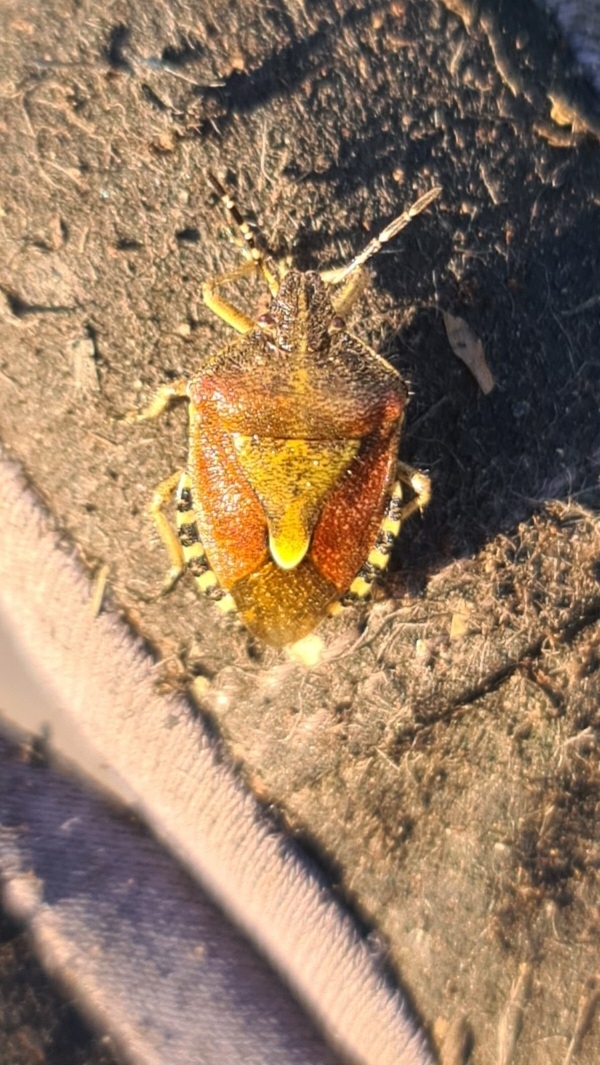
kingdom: Animalia
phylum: Arthropoda
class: Insecta
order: Hemiptera
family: Pentatomidae
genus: Dolycoris
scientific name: Dolycoris baccarum
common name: Sloe bug
